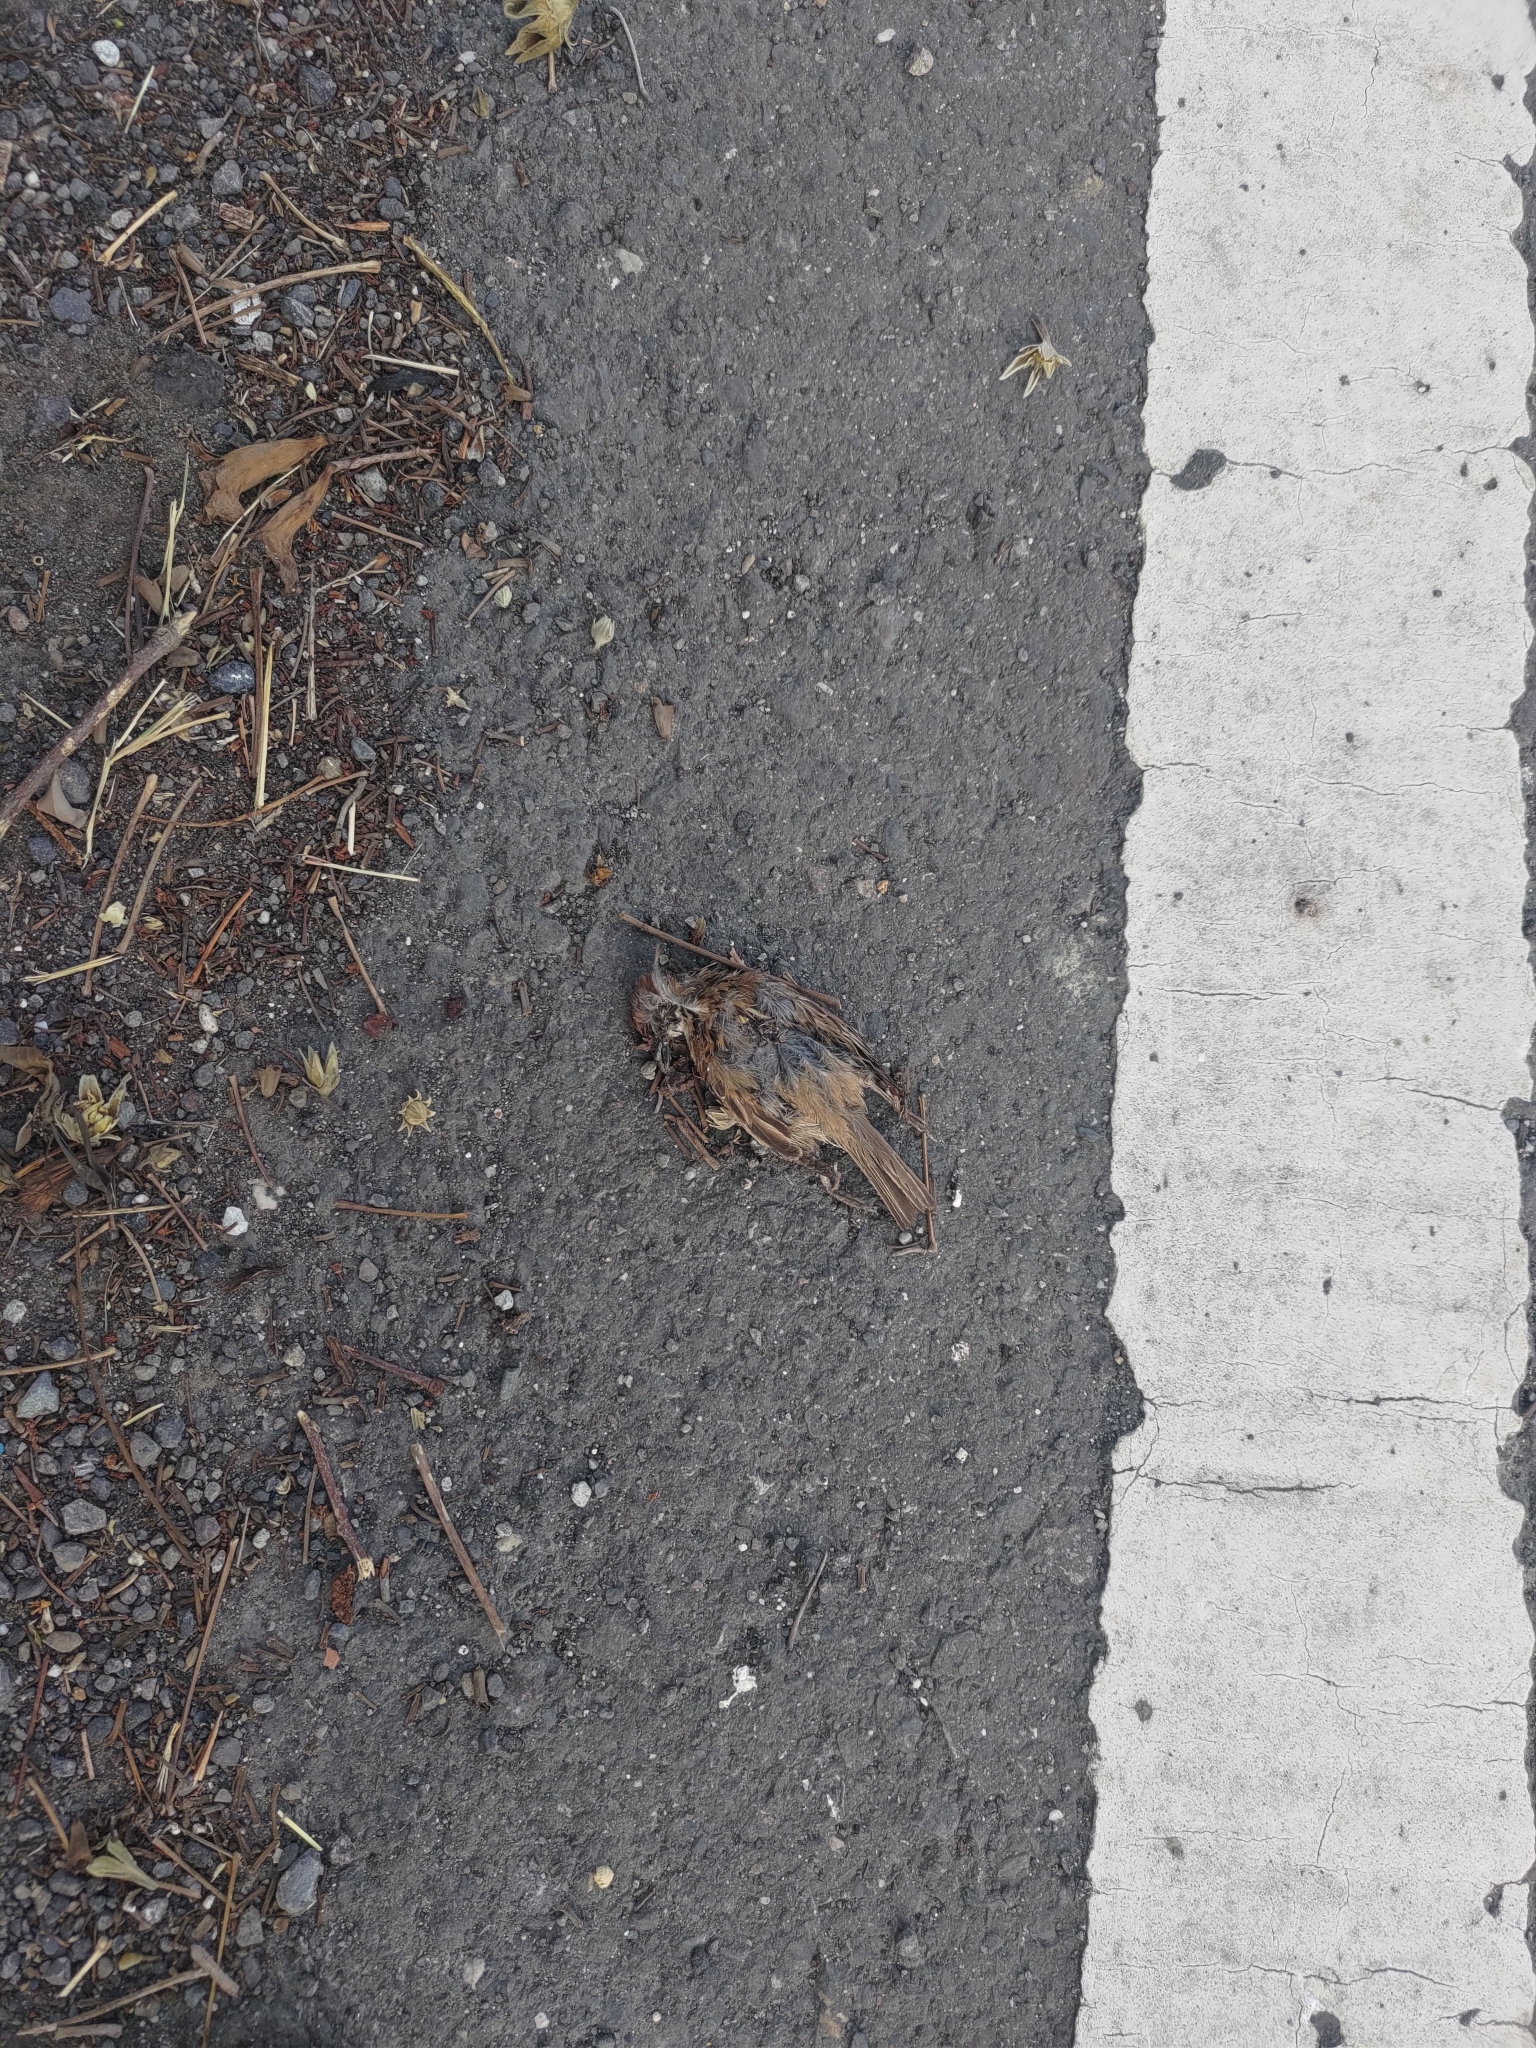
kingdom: Animalia
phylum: Chordata
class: Aves
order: Passeriformes
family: Passeridae
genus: Passer
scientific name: Passer montanus
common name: Eurasian tree sparrow
